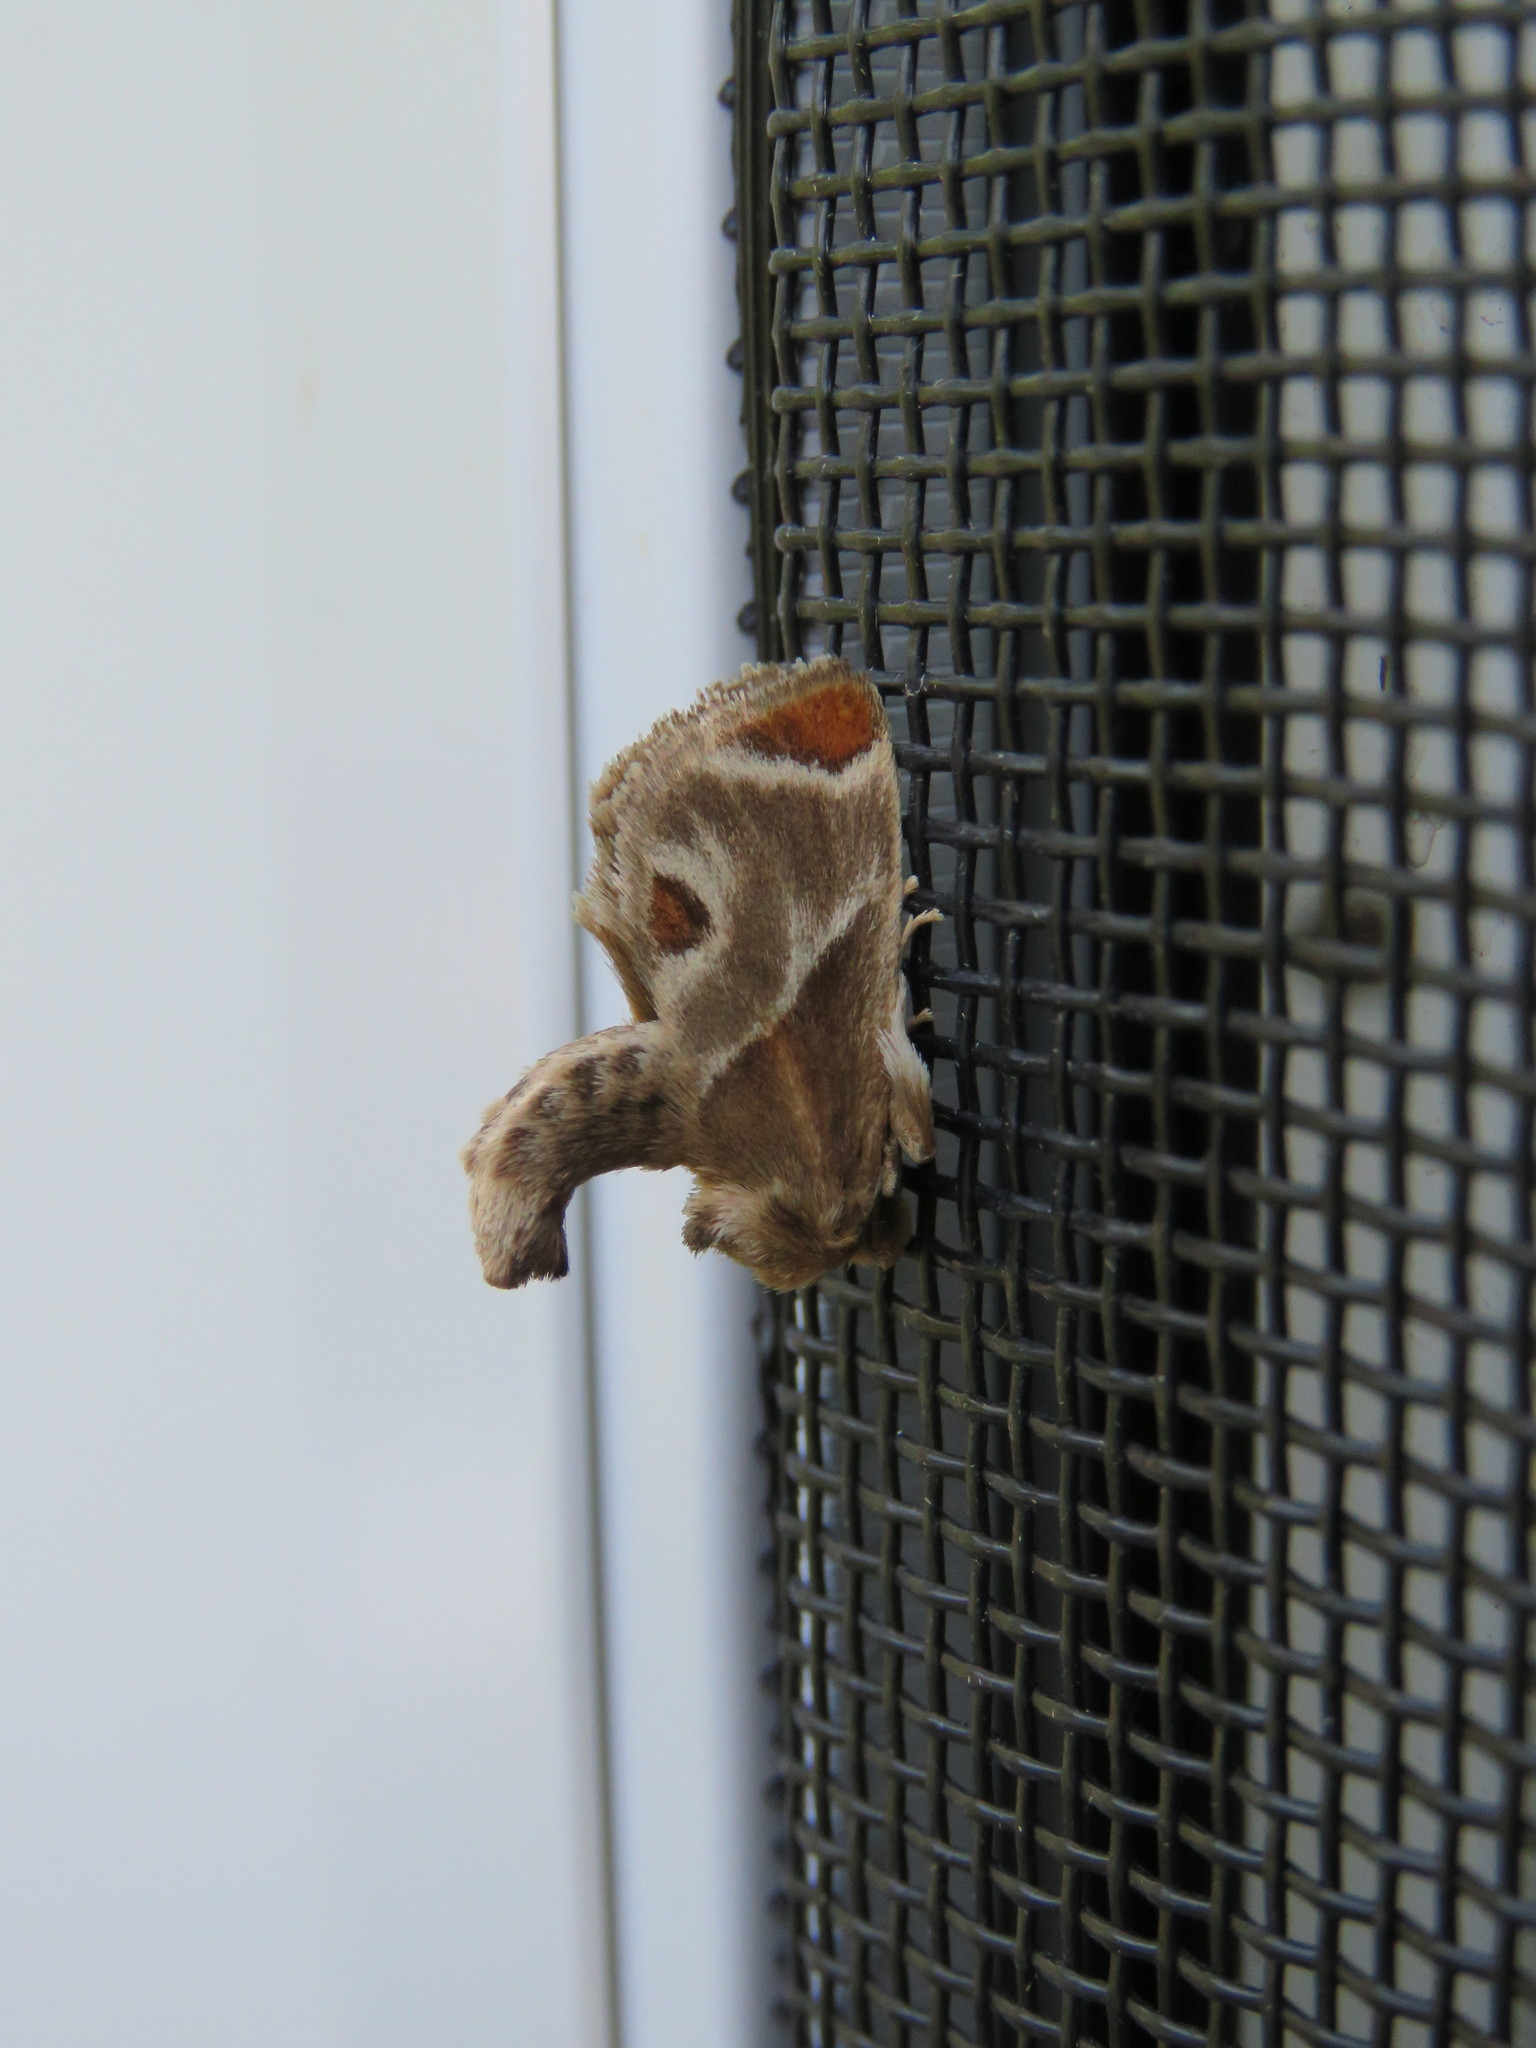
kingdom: Animalia
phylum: Arthropoda
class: Insecta
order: Lepidoptera
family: Limacodidae
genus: Apoda
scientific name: Apoda biguttata
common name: Shagreened slug moth
